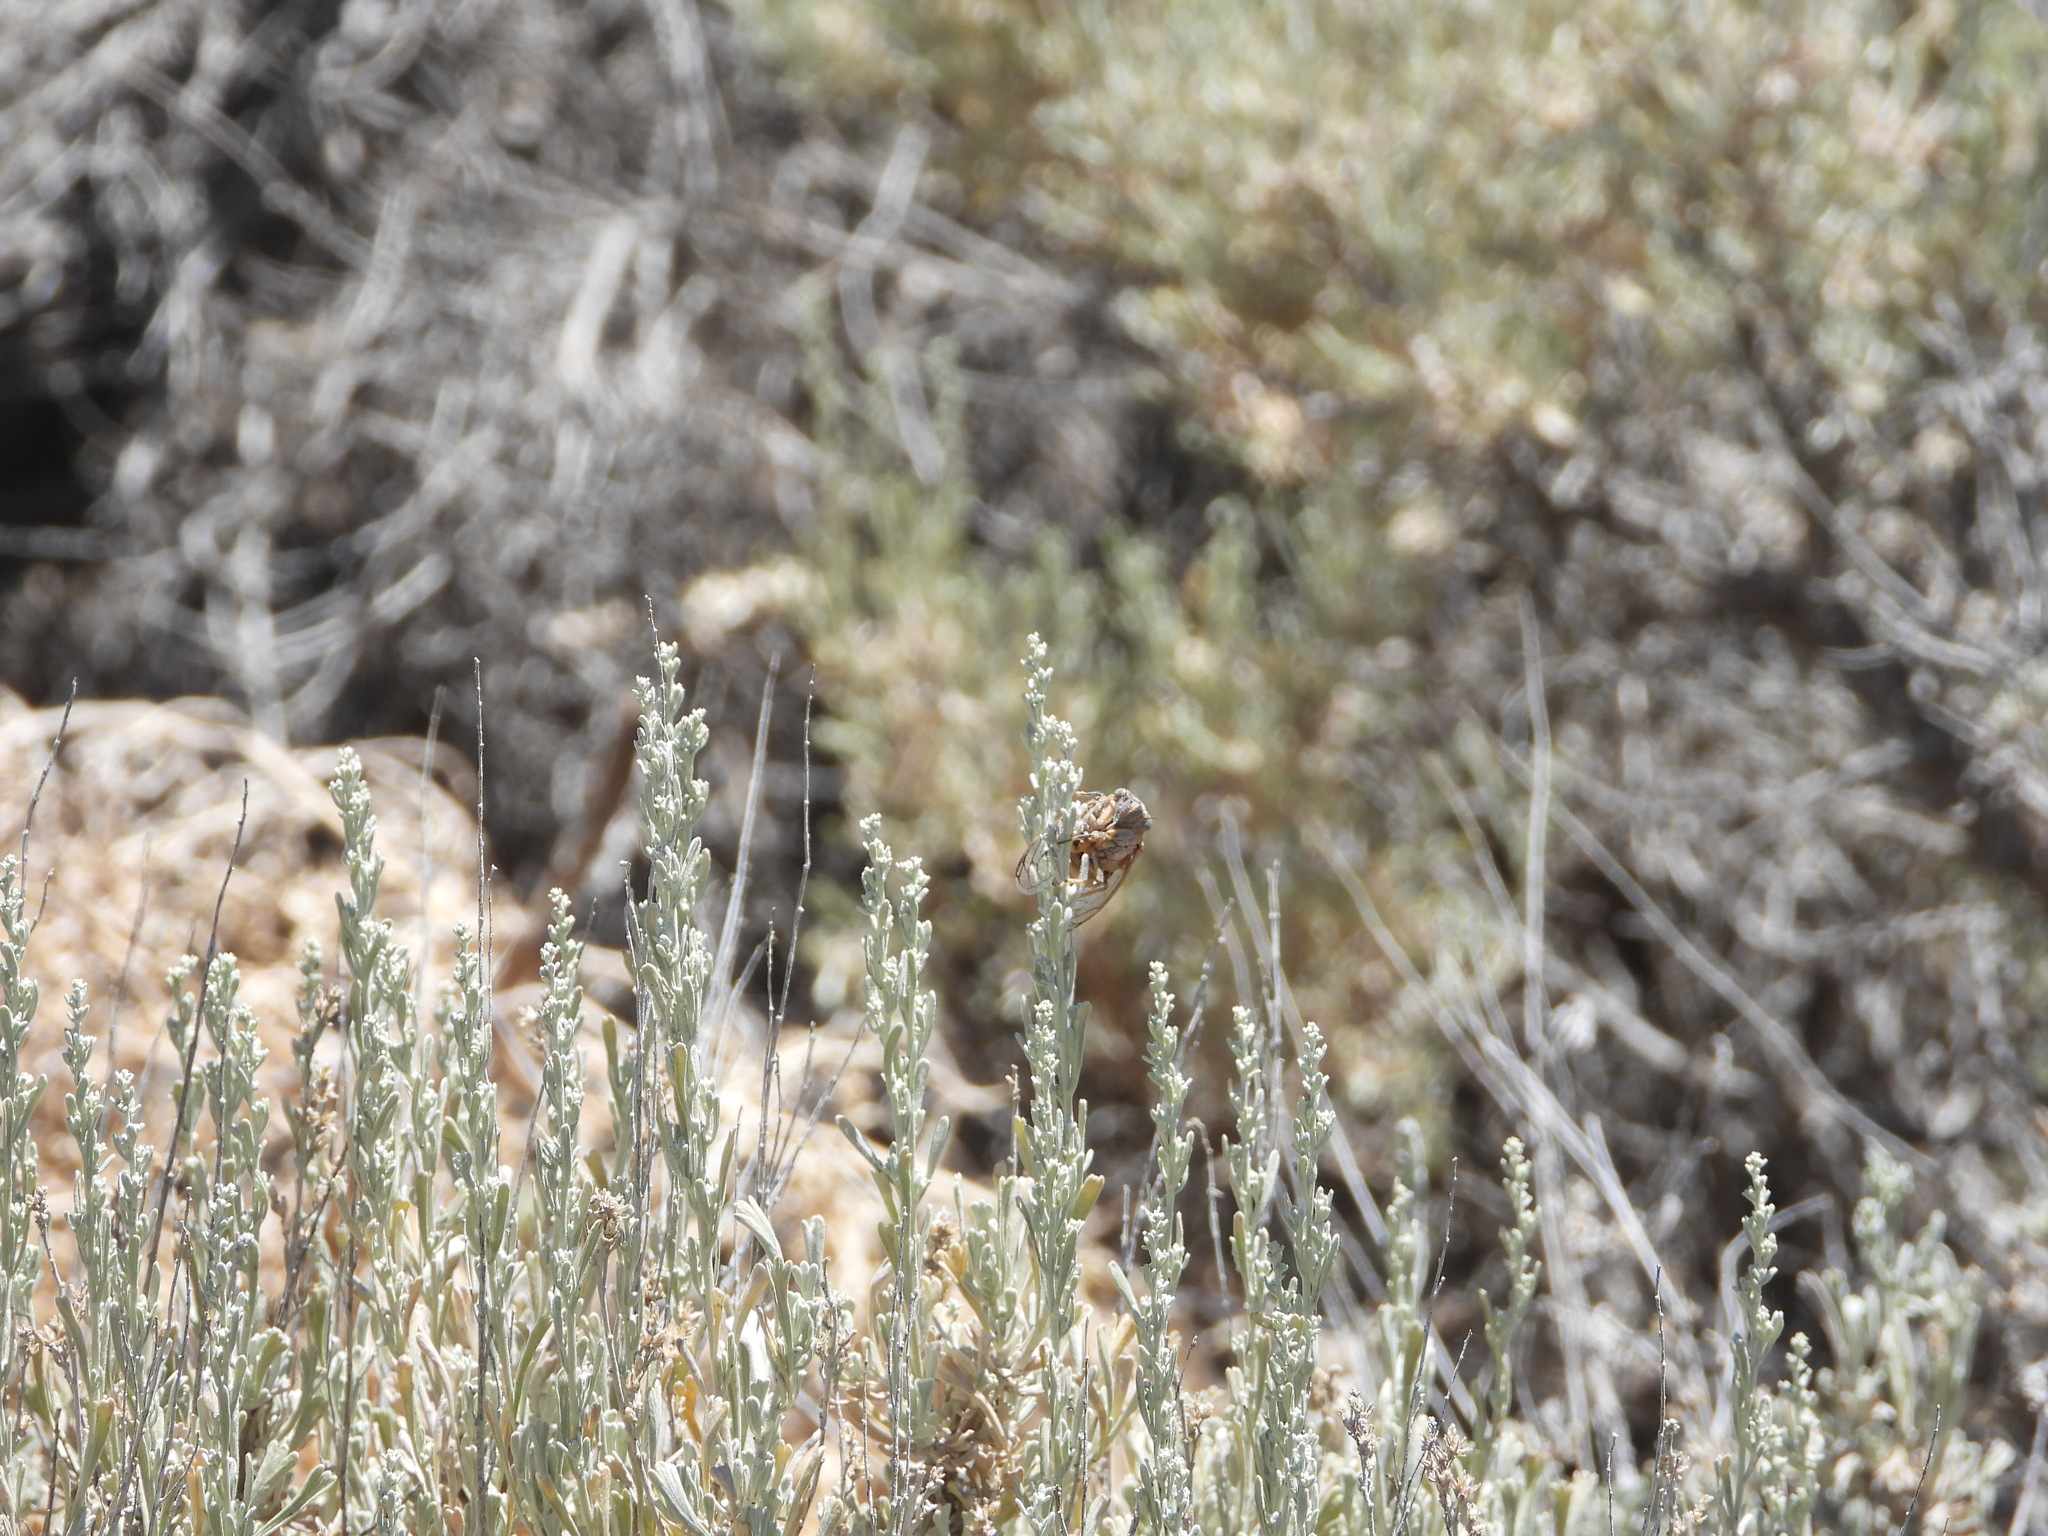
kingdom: Animalia
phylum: Arthropoda
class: Insecta
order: Hemiptera
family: Cicadidae
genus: Tibicinoides
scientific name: Tibicinoides
